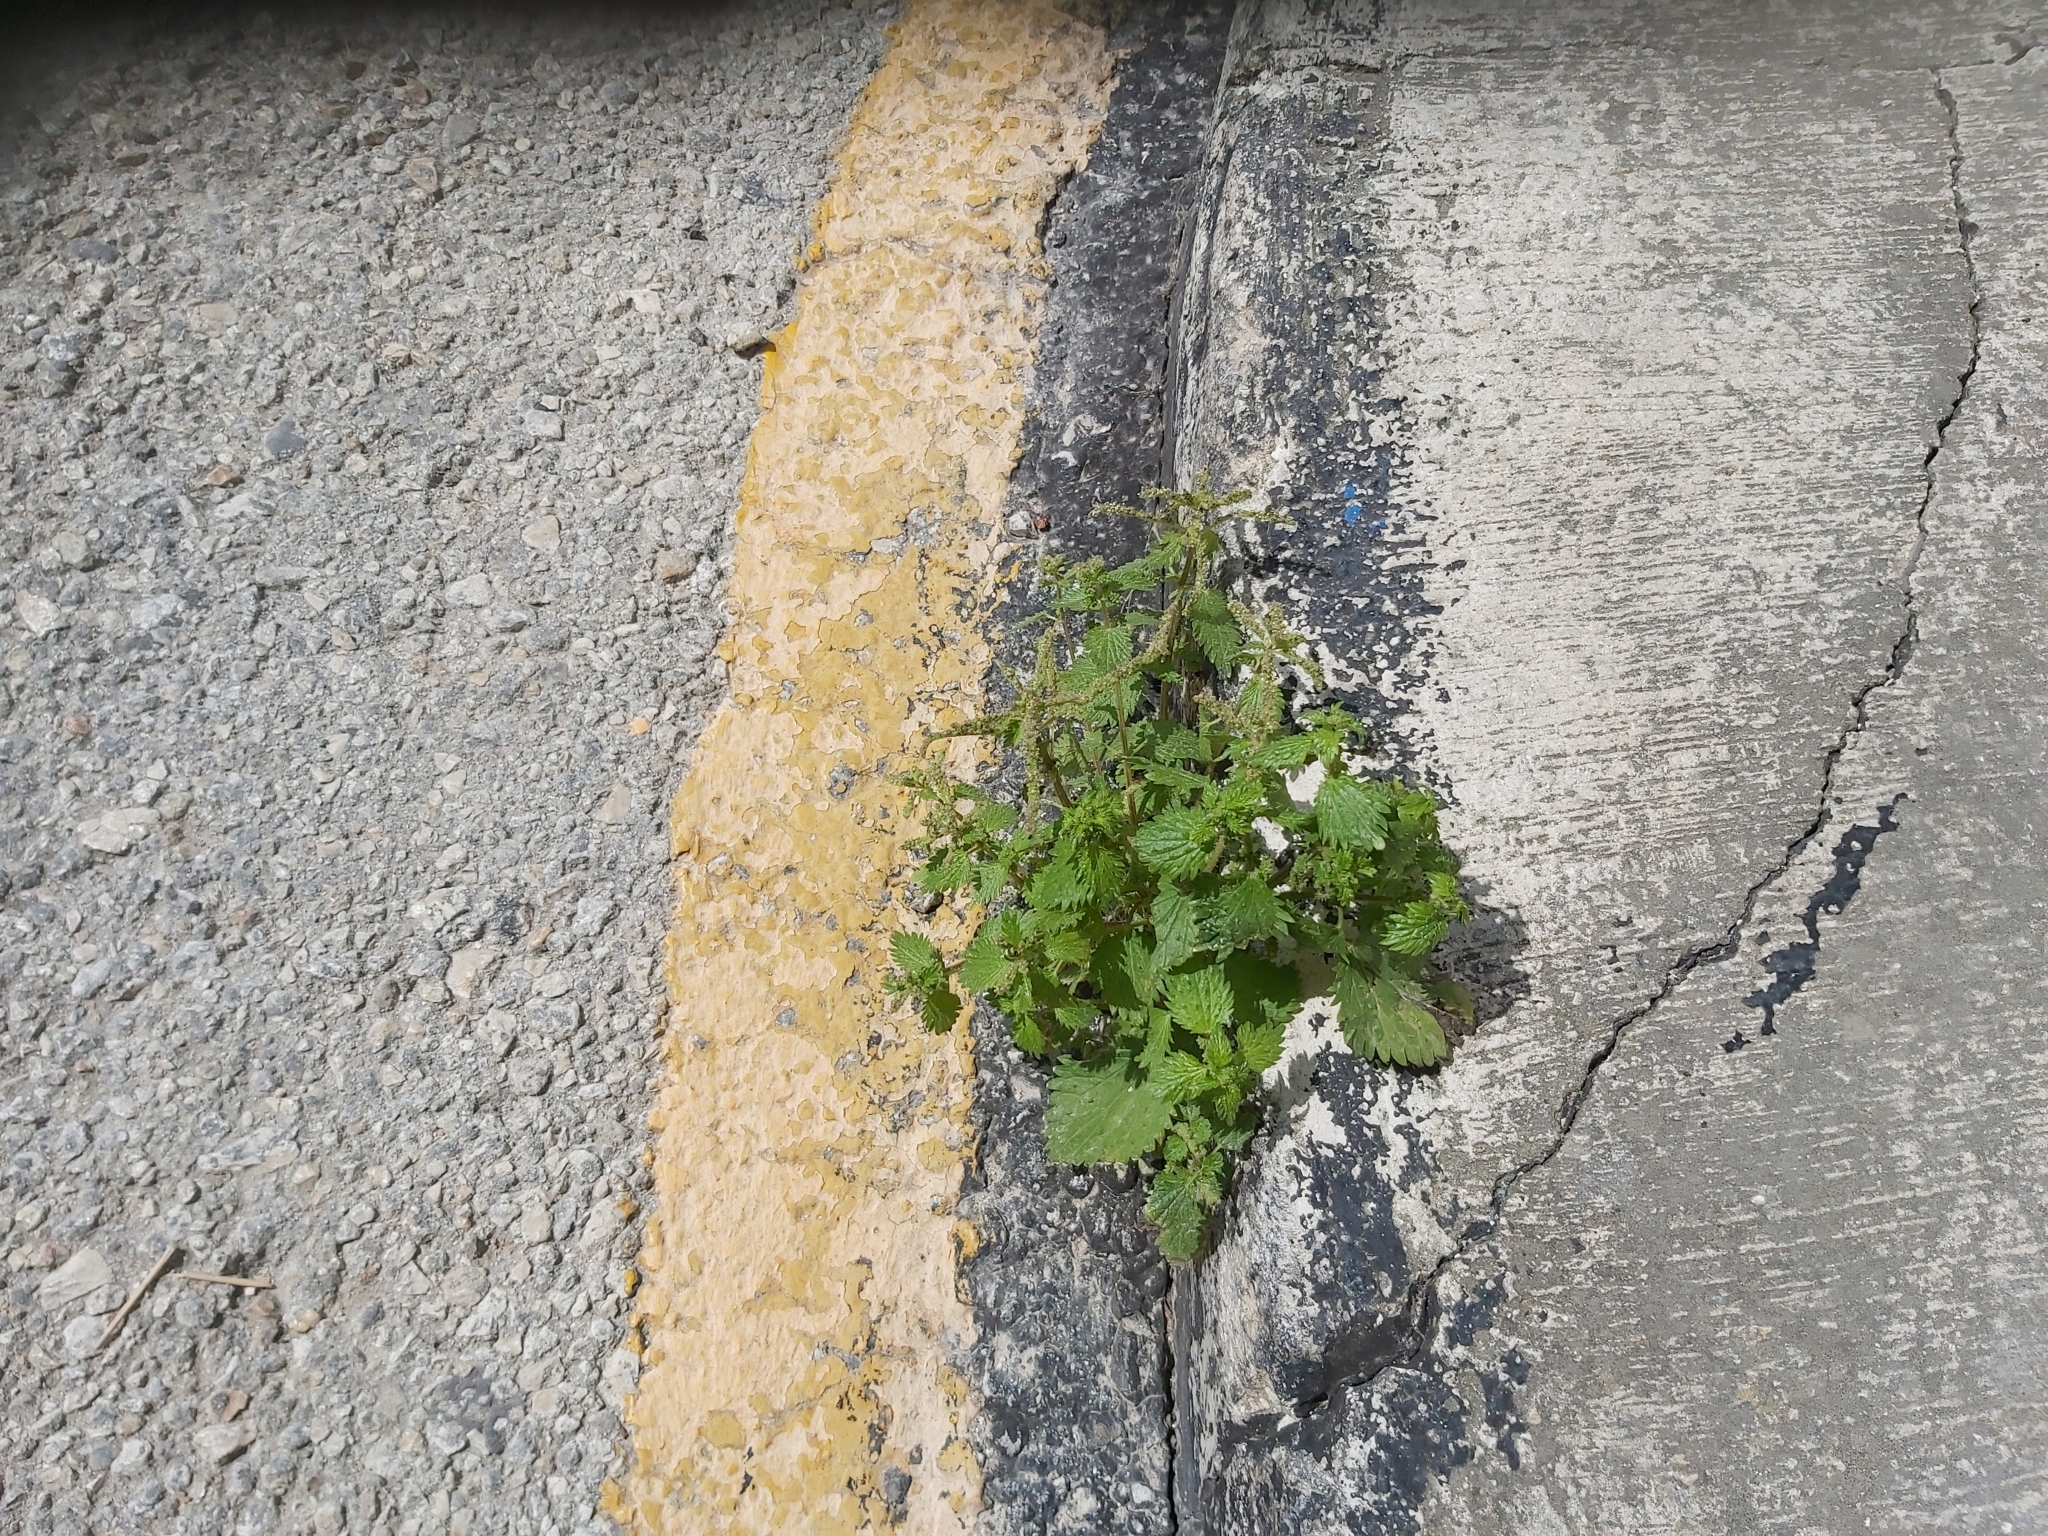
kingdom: Plantae
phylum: Tracheophyta
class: Magnoliopsida
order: Rosales
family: Urticaceae
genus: Urtica
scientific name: Urtica membranacea
